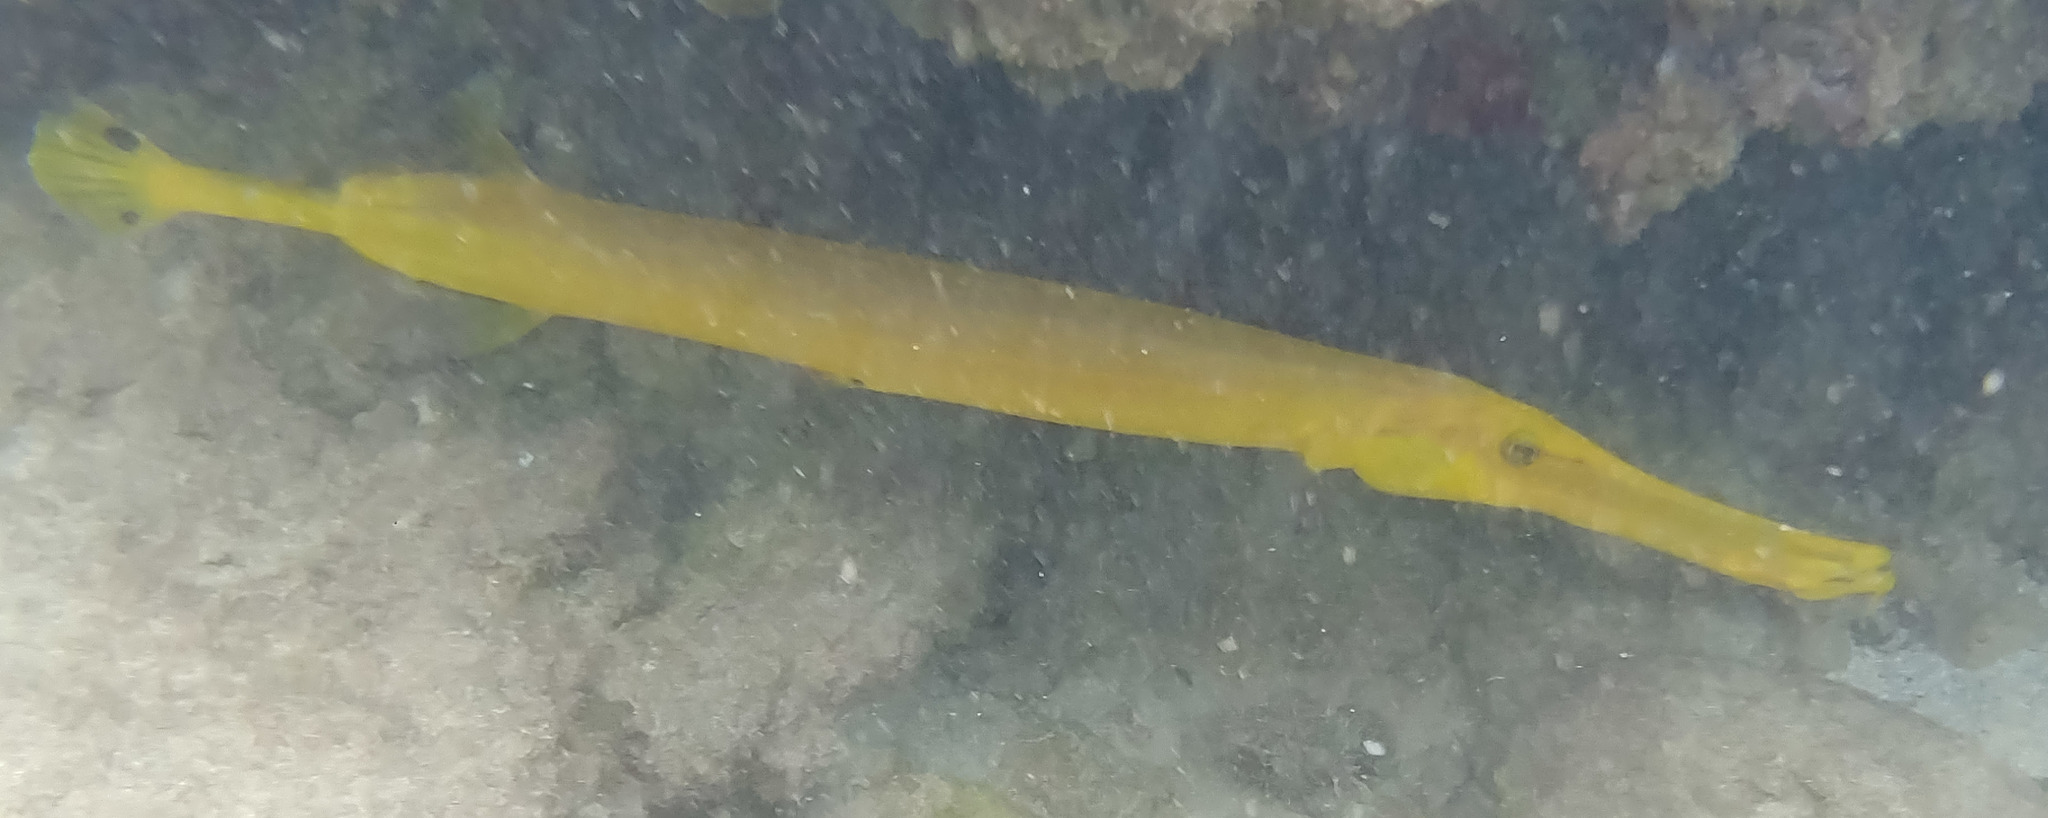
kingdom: Animalia
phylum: Chordata
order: Syngnathiformes
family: Aulostomidae
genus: Aulostomus
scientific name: Aulostomus chinensis
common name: Chinese trumpetfish
